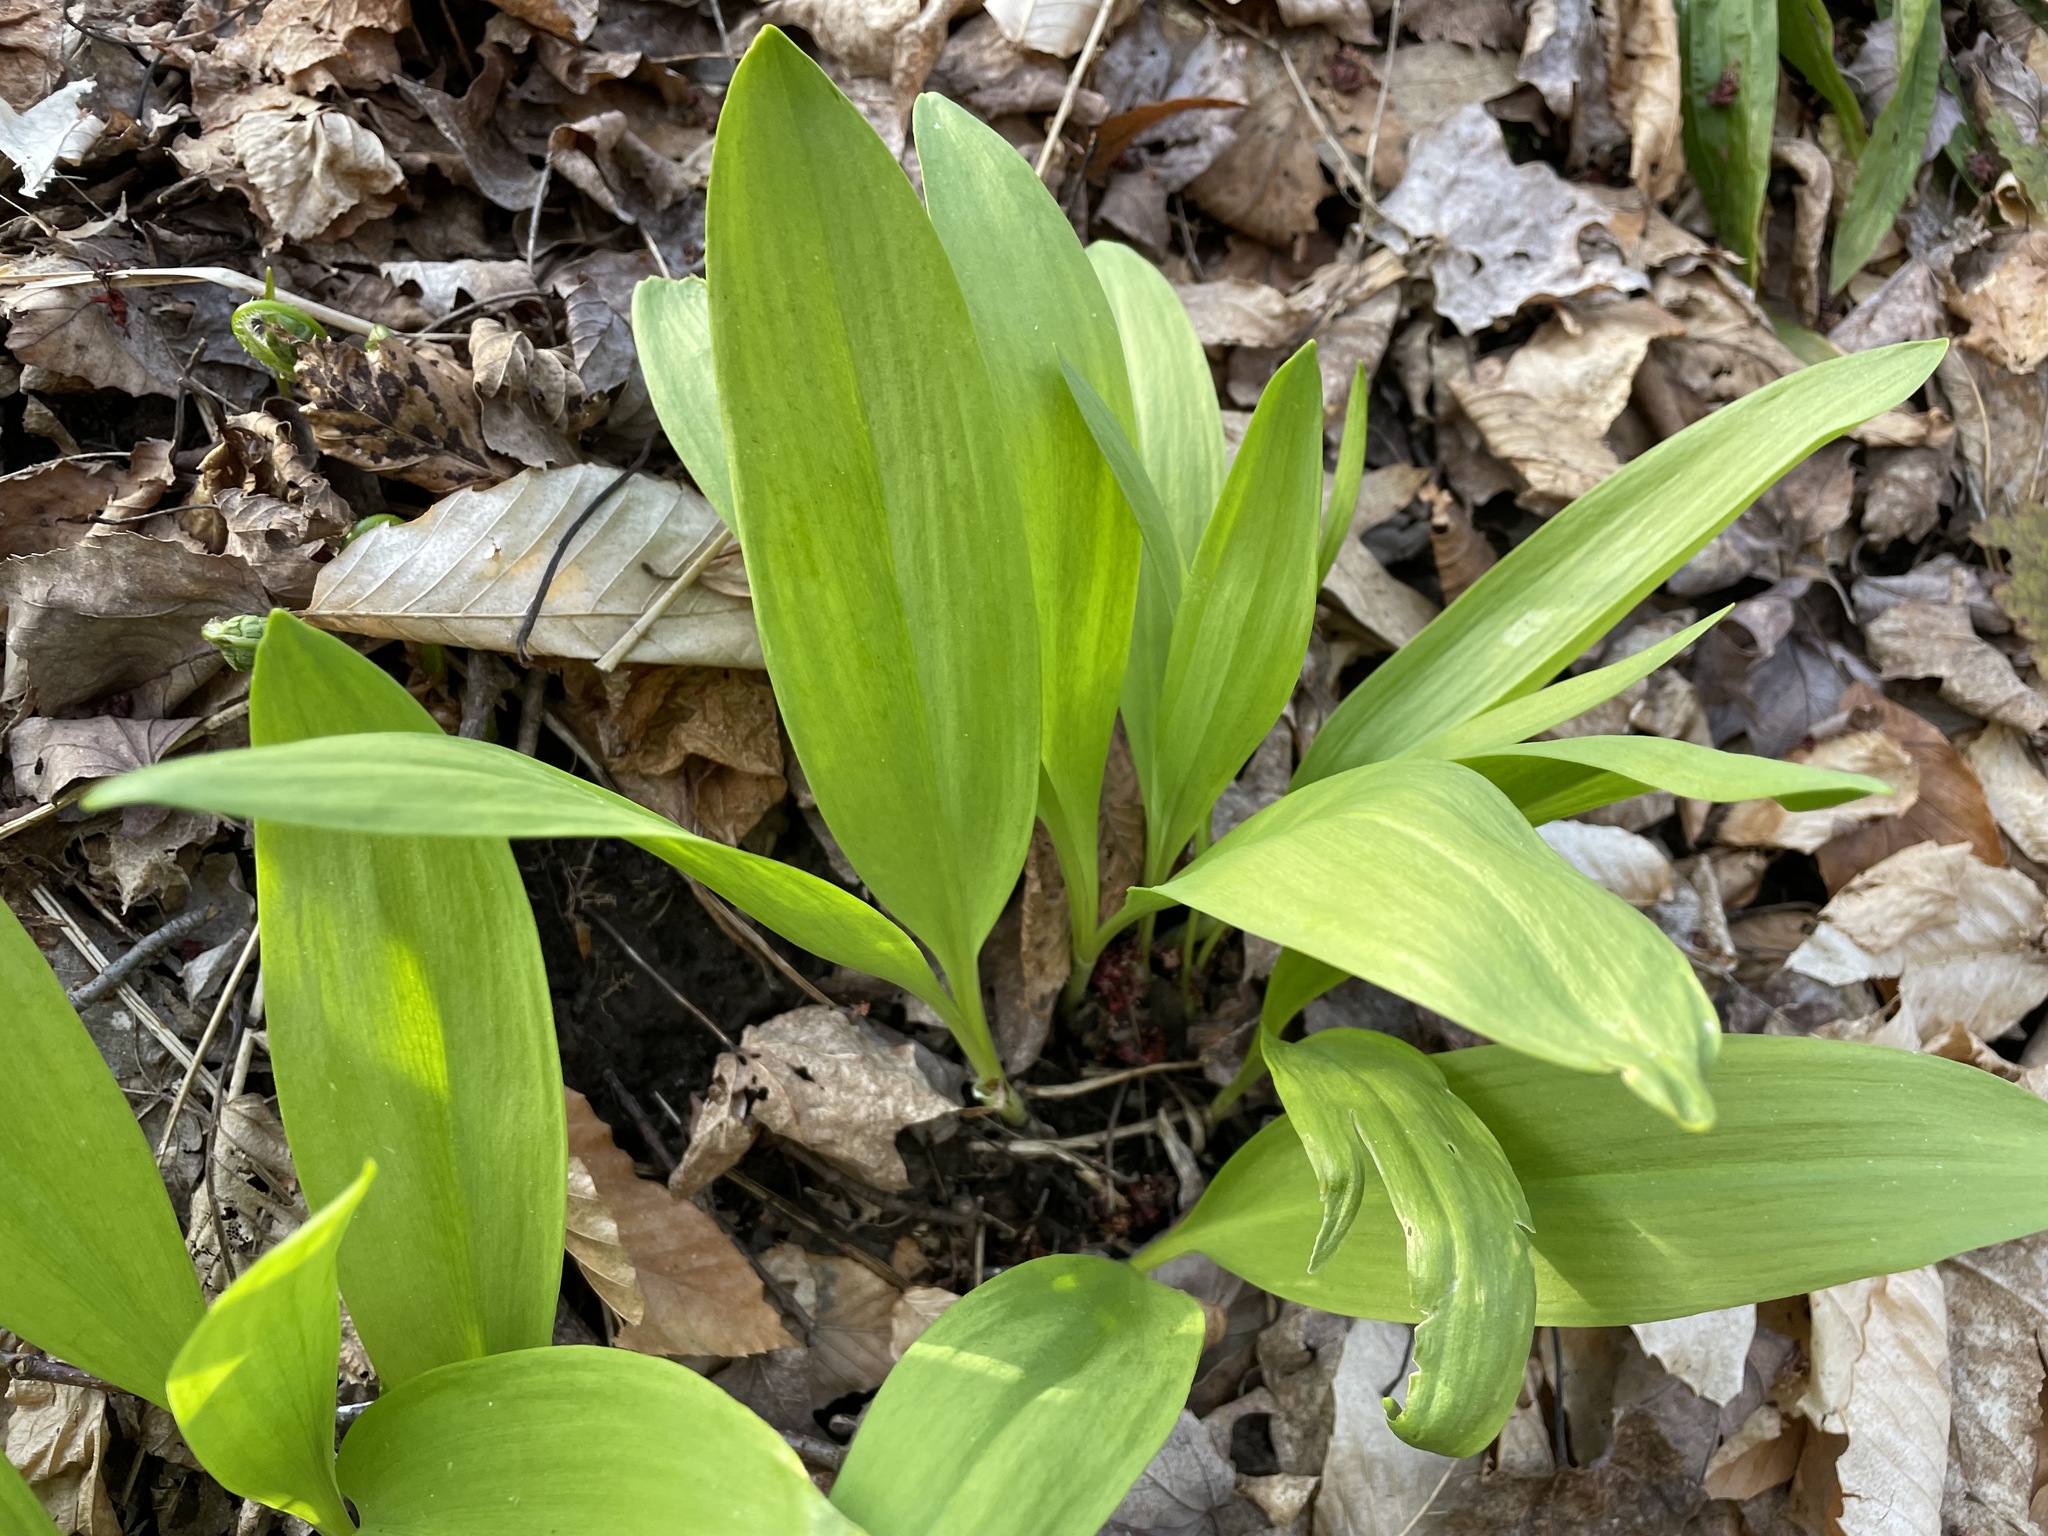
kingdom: Plantae
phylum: Tracheophyta
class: Liliopsida
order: Asparagales
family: Amaryllidaceae
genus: Allium
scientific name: Allium tricoccum
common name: Ramp
